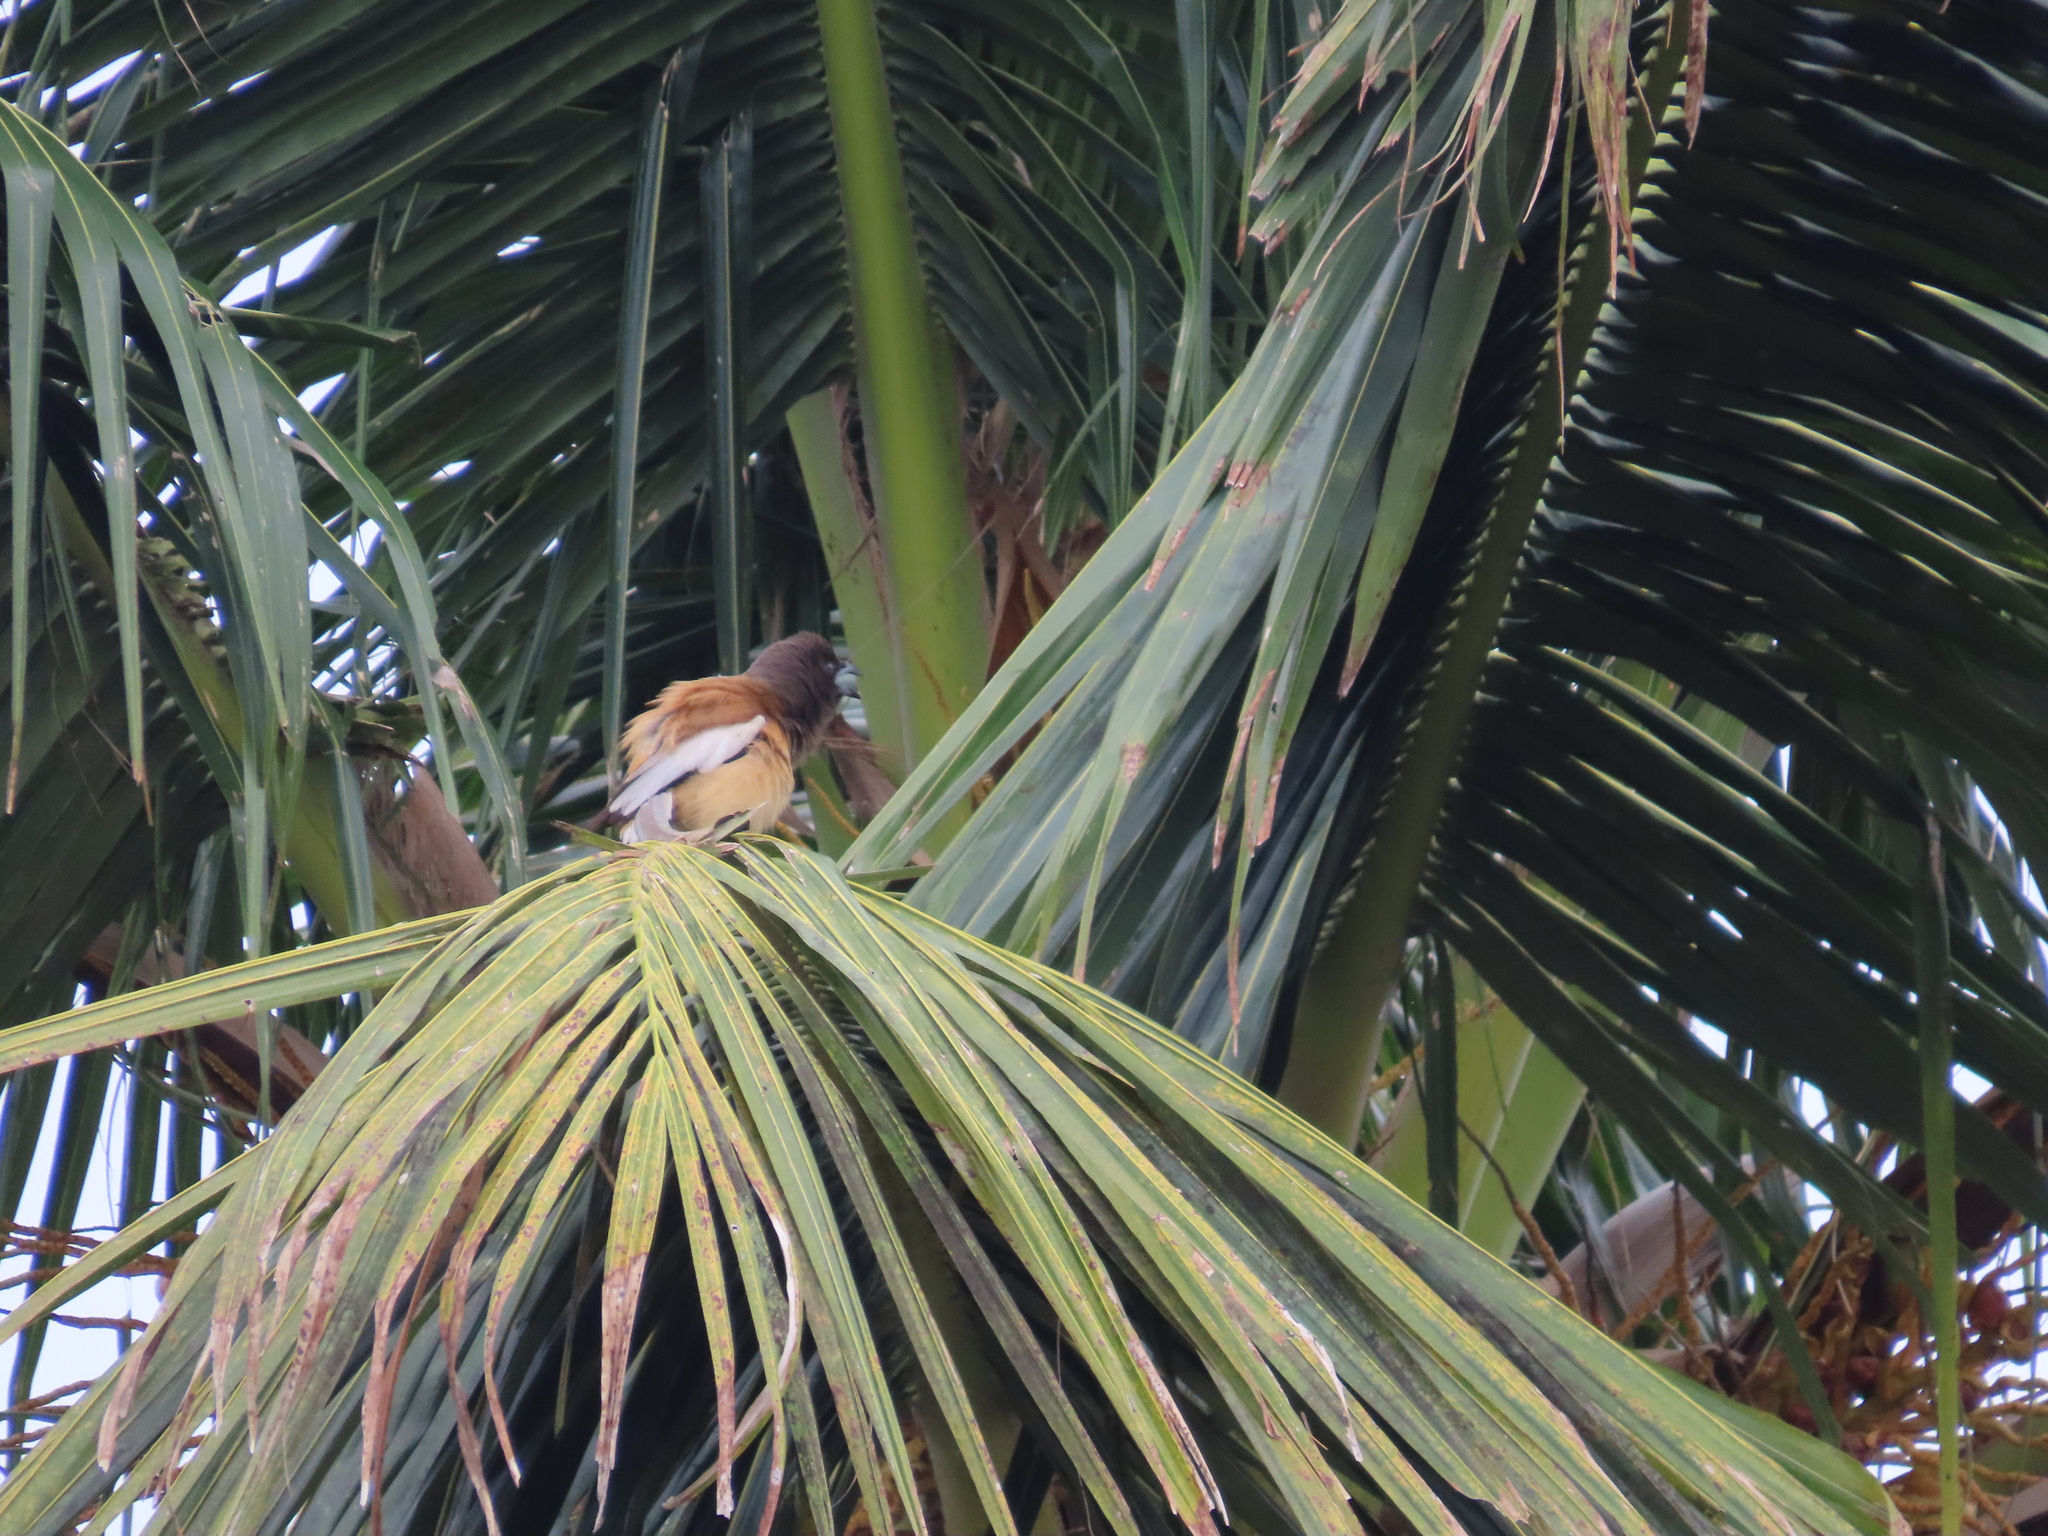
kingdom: Animalia
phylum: Chordata
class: Aves
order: Passeriformes
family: Corvidae
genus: Dendrocitta
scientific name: Dendrocitta vagabunda
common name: Rufous treepie
